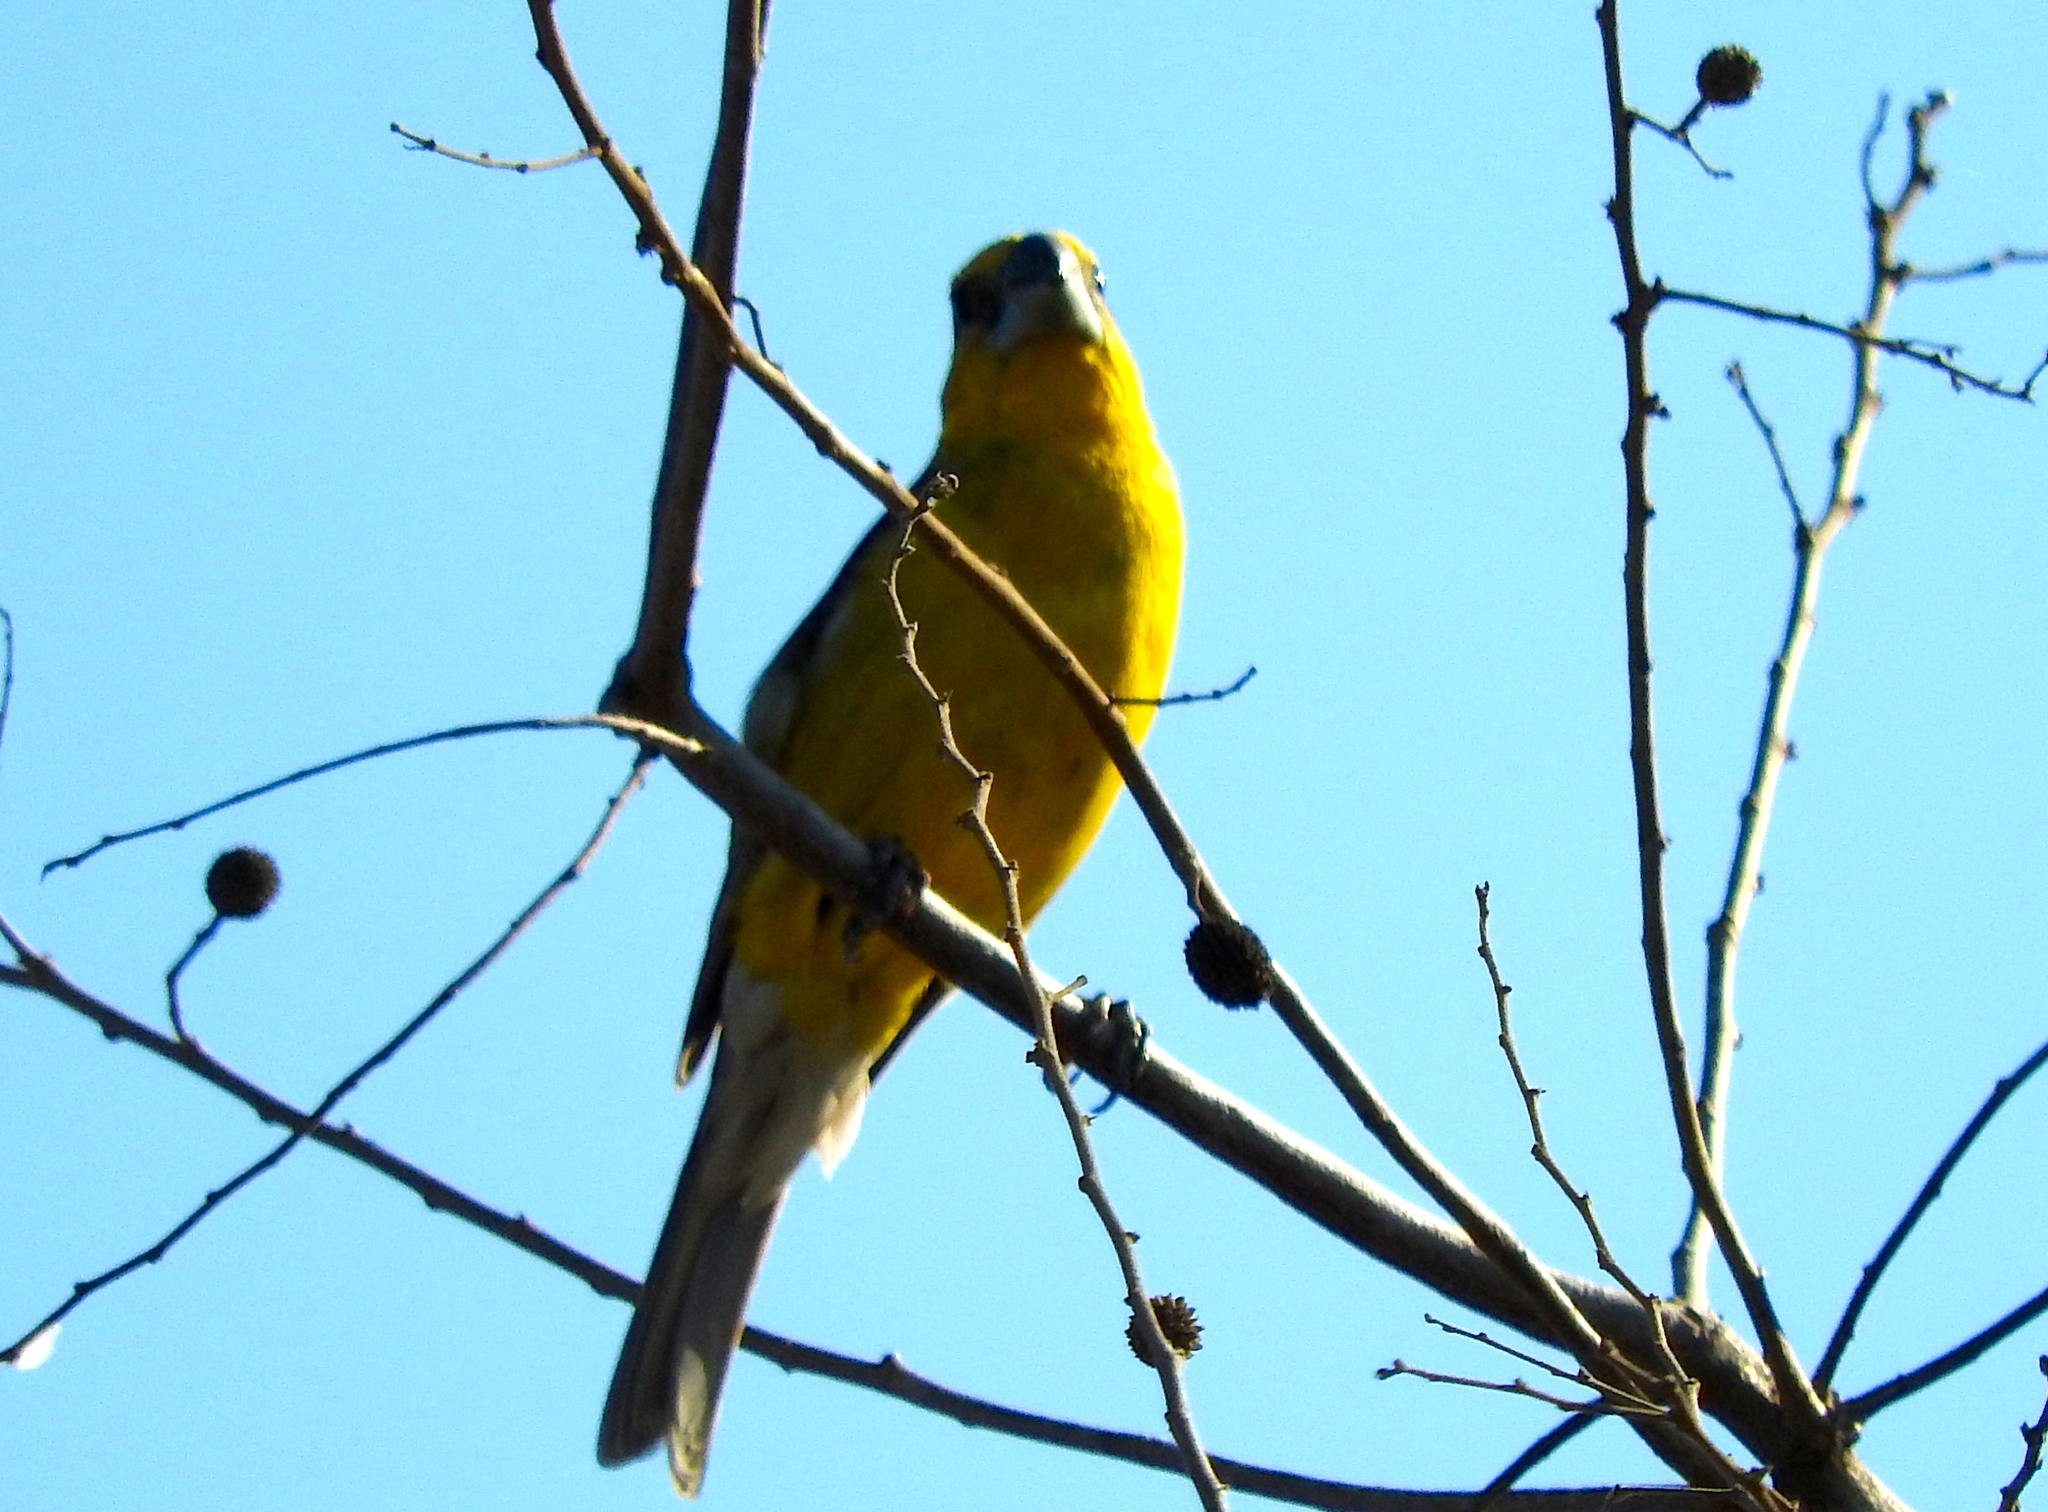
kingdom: Animalia
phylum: Chordata
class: Aves
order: Passeriformes
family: Cardinalidae
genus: Pheucticus
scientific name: Pheucticus chrysopeplus
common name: Yellow grosbeak
